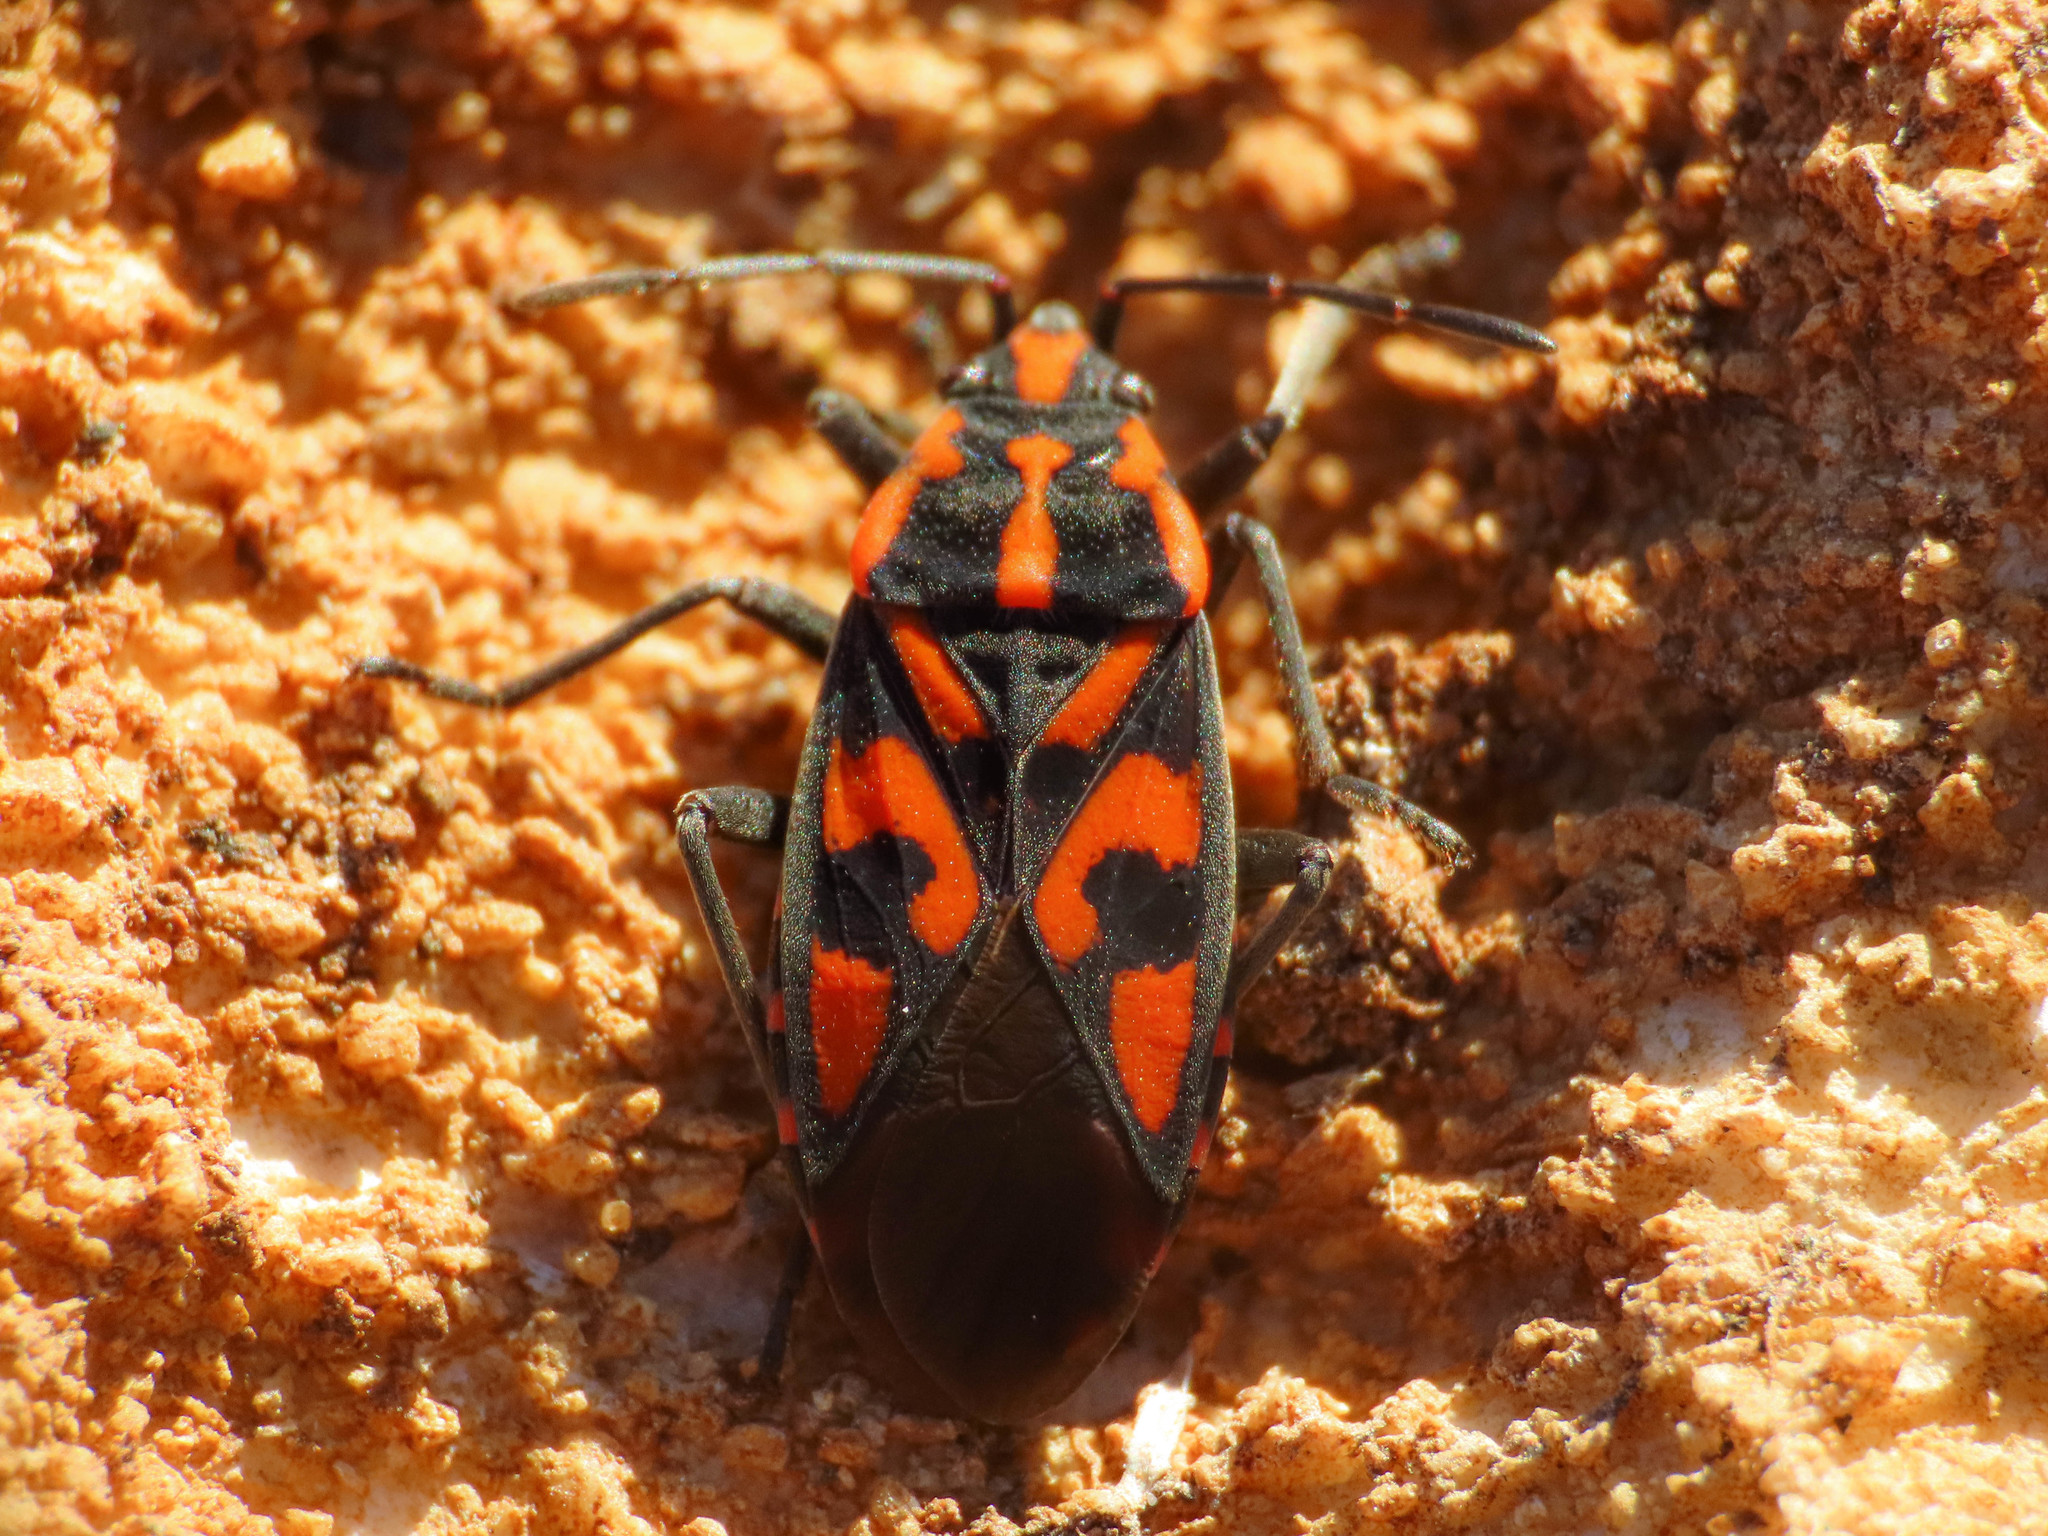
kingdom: Animalia
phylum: Arthropoda
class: Insecta
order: Hemiptera
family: Lygaeidae
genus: Spilostethus
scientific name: Spilostethus saxatilis
